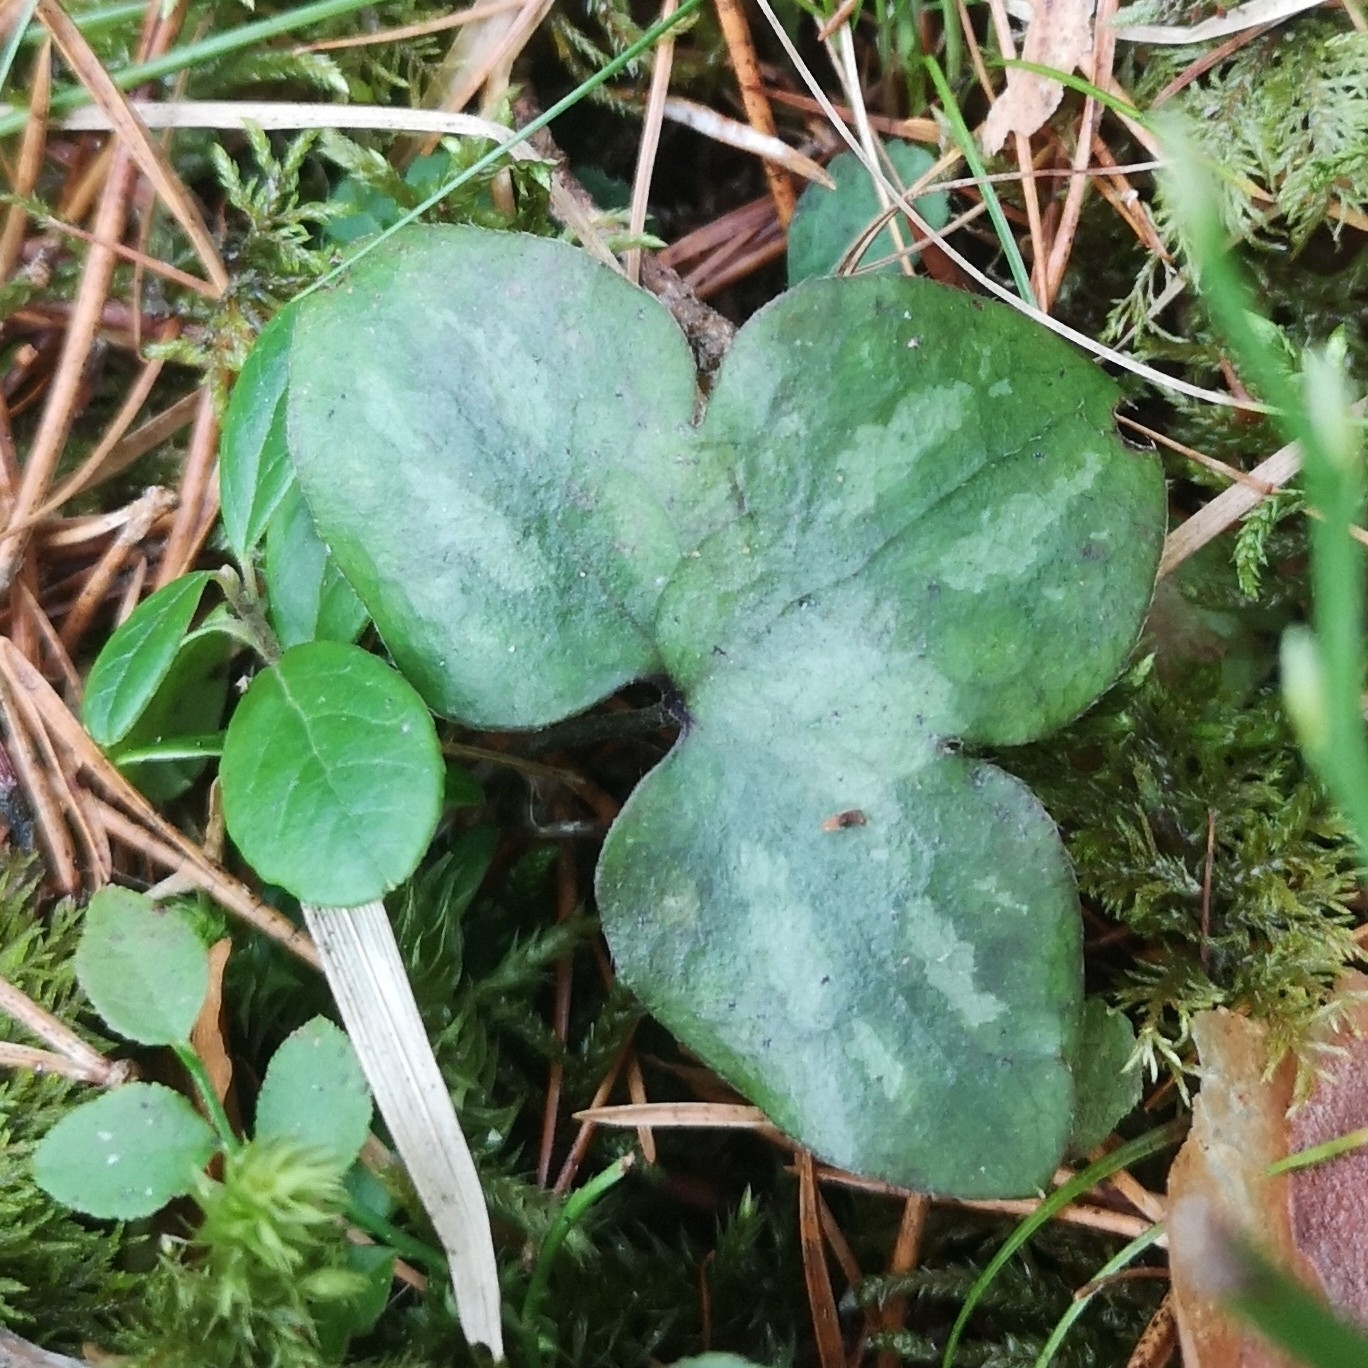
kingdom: Plantae
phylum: Tracheophyta
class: Magnoliopsida
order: Ranunculales
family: Ranunculaceae
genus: Hepatica
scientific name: Hepatica nobilis
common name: Liverleaf
